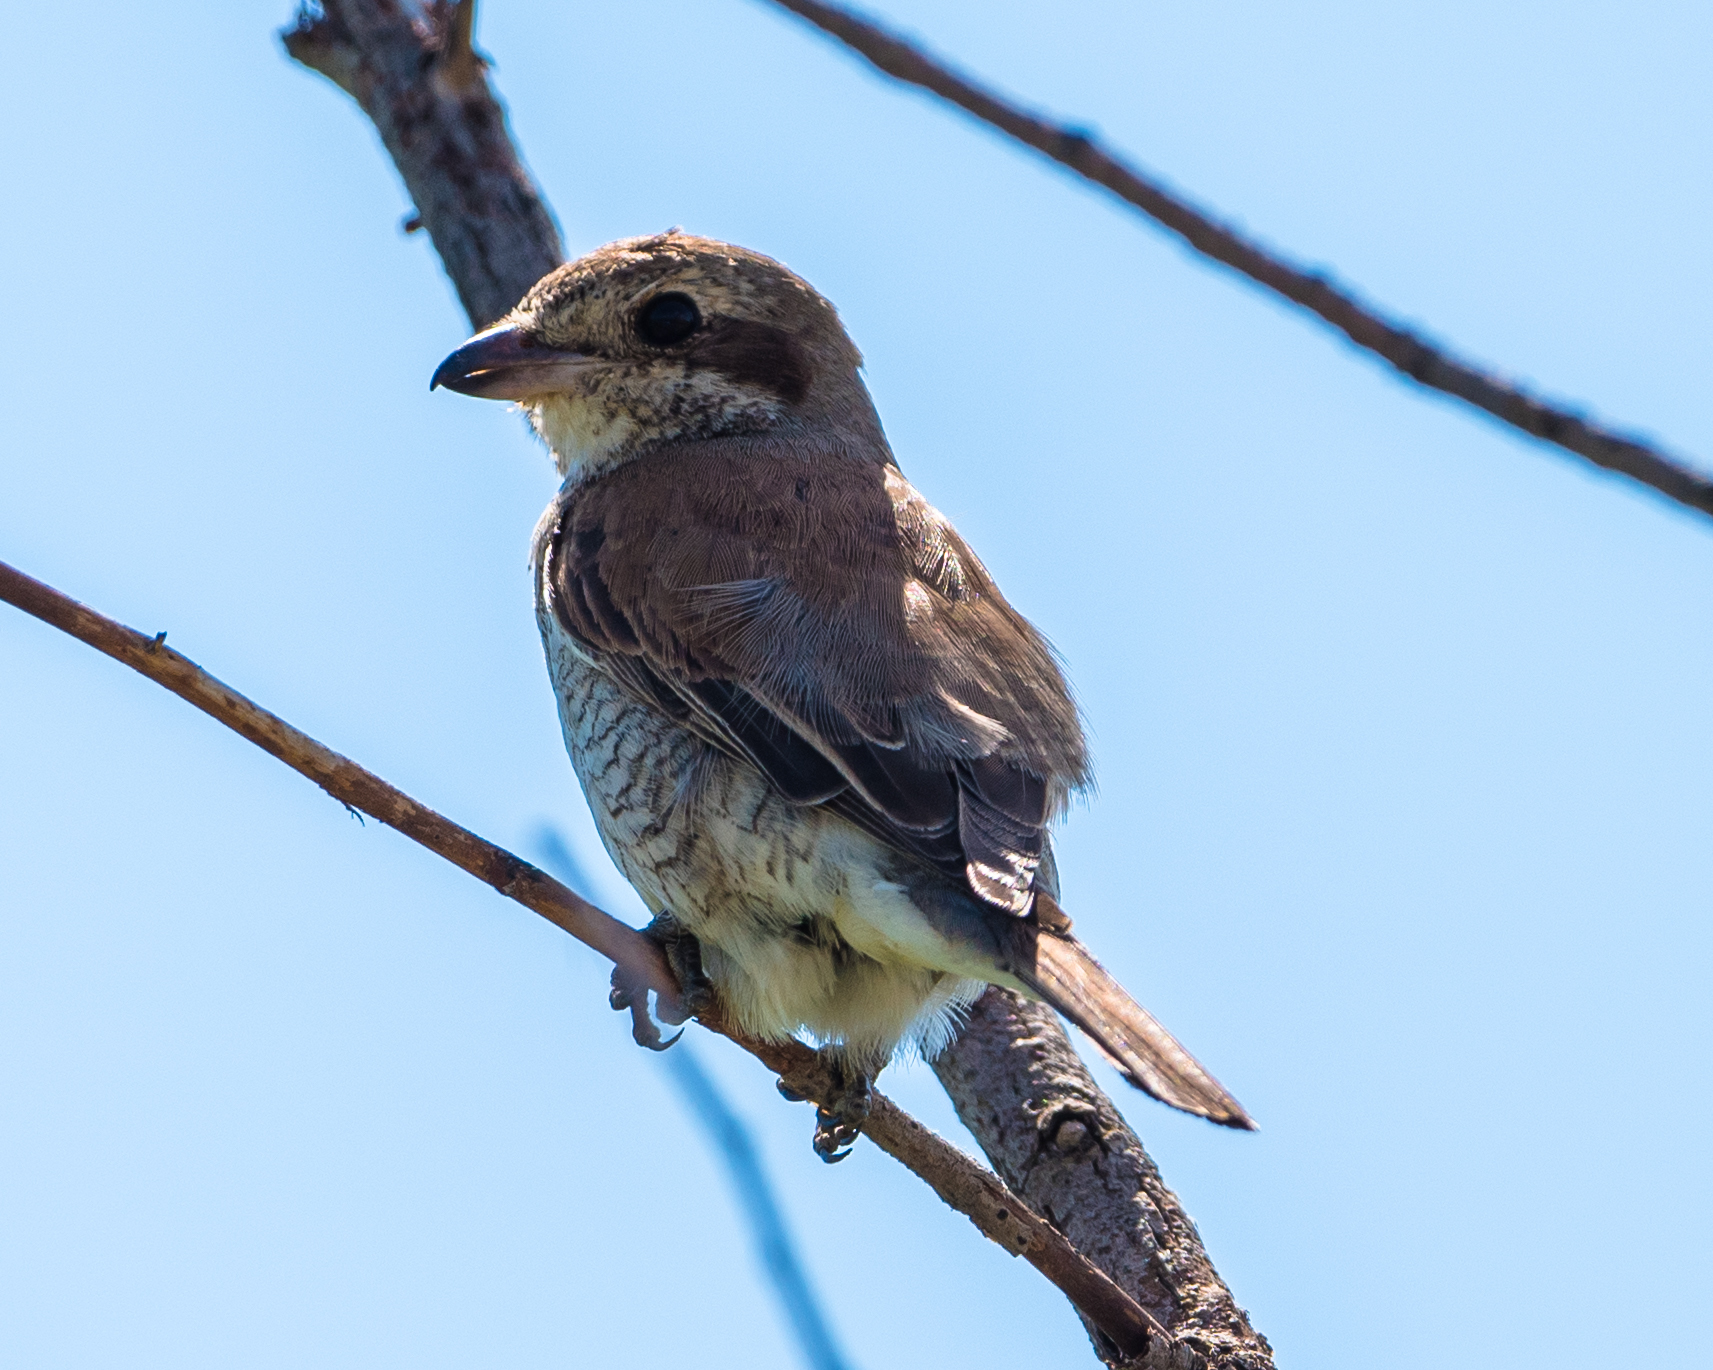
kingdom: Animalia
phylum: Chordata
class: Aves
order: Passeriformes
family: Laniidae
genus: Lanius
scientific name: Lanius collurio
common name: Red-backed shrike
